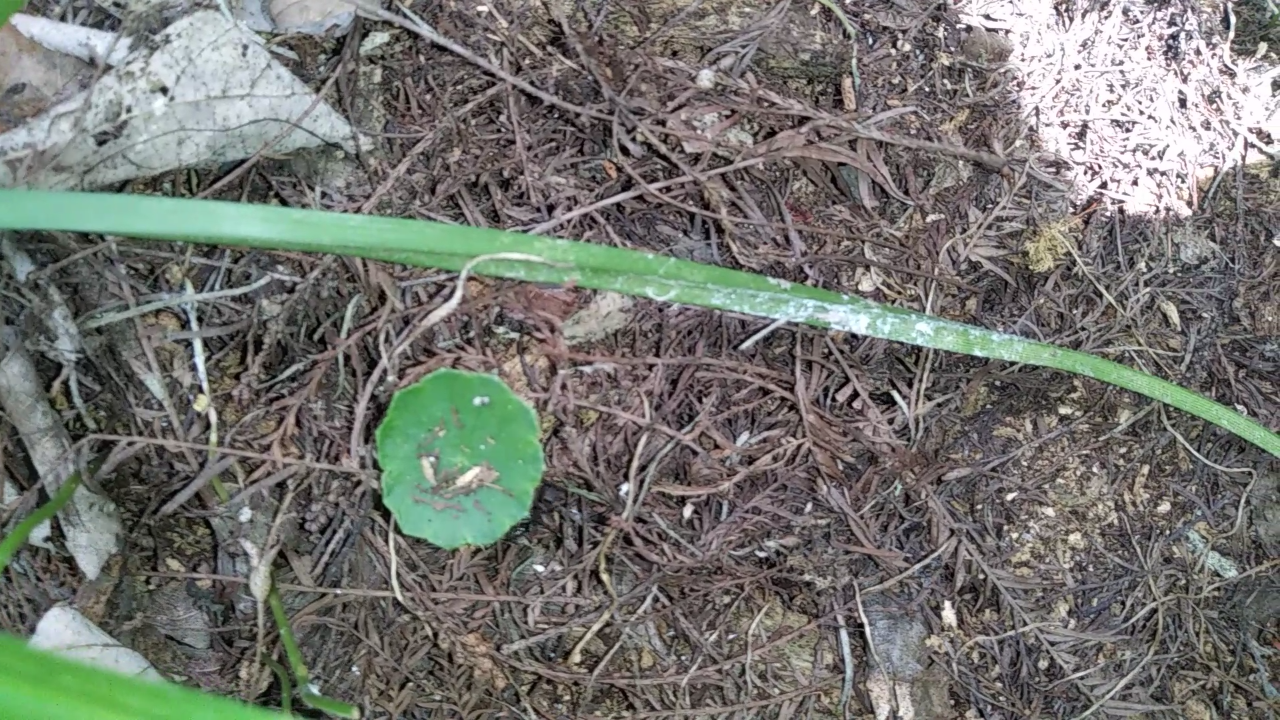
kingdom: Animalia
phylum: Arthropoda
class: Insecta
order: Hymenoptera
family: Formicidae
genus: Odontomachus
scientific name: Odontomachus brunneus
